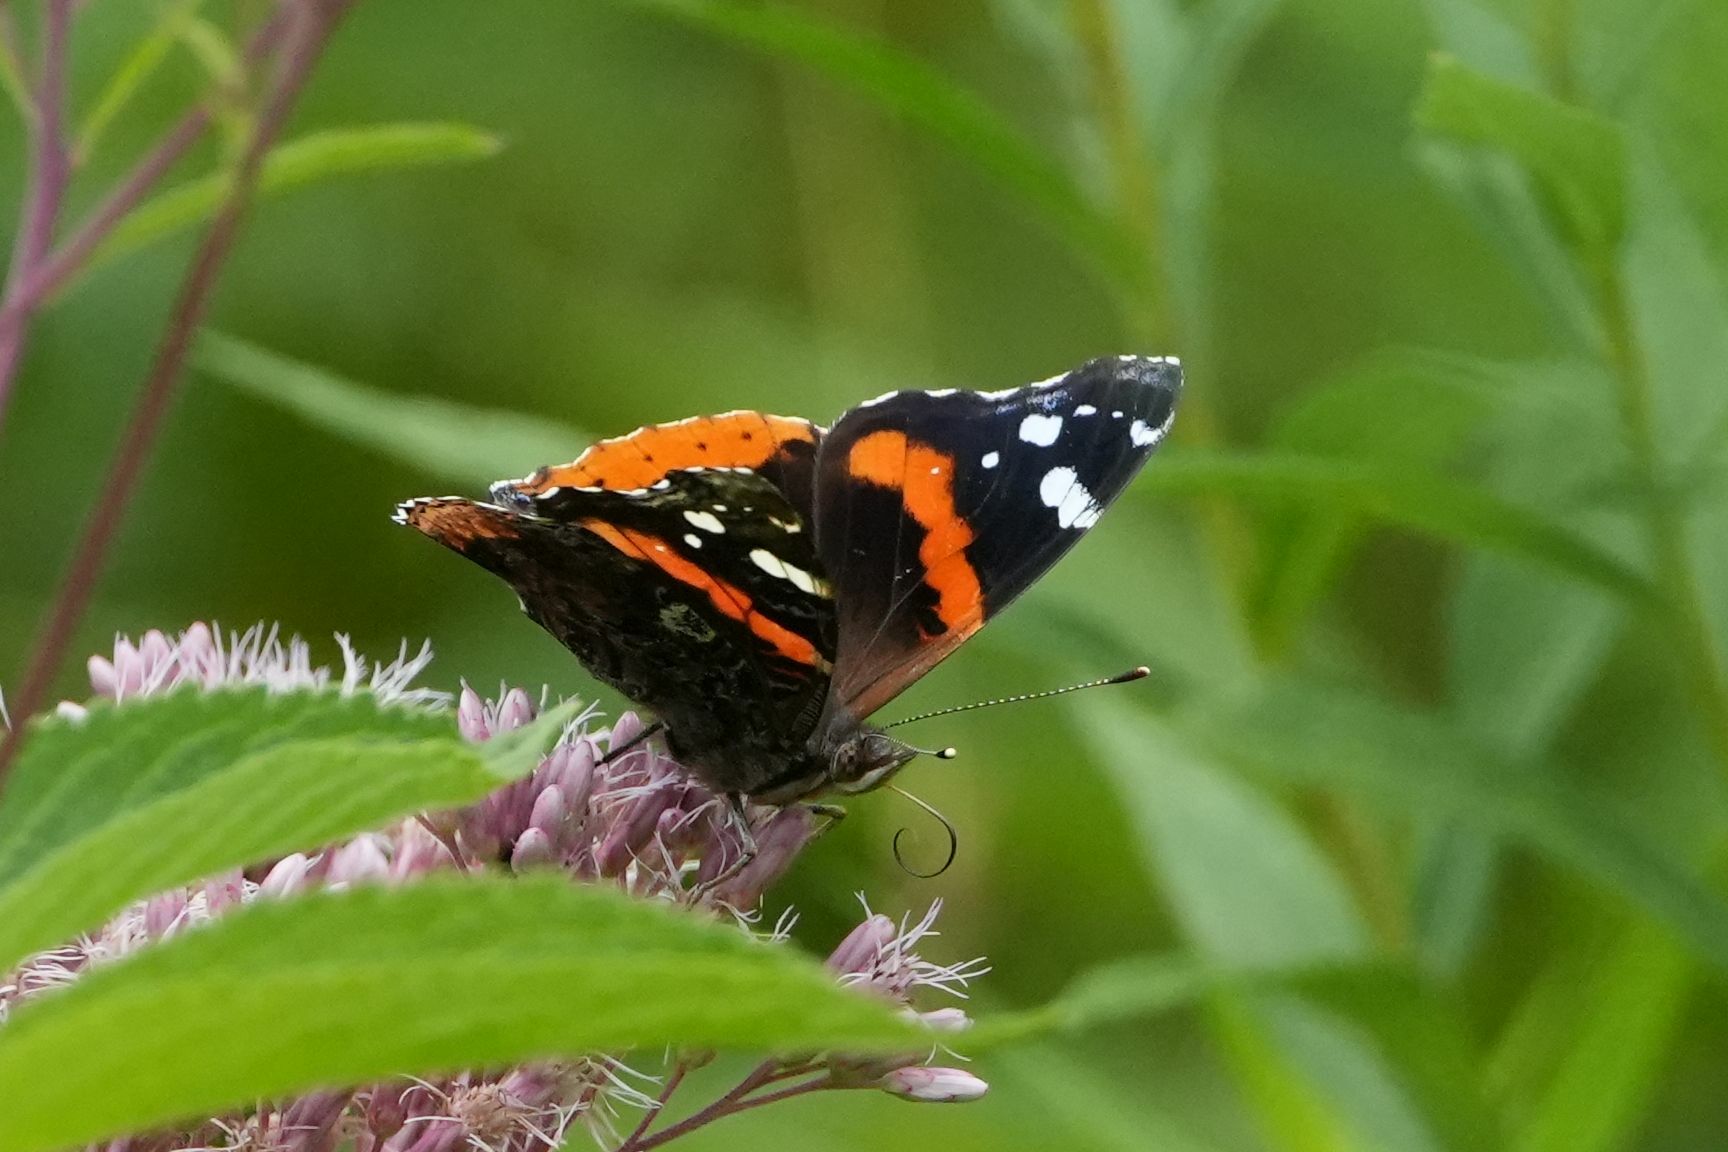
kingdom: Animalia
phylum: Arthropoda
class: Insecta
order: Lepidoptera
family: Nymphalidae
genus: Vanessa
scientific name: Vanessa atalanta
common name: Red admiral
